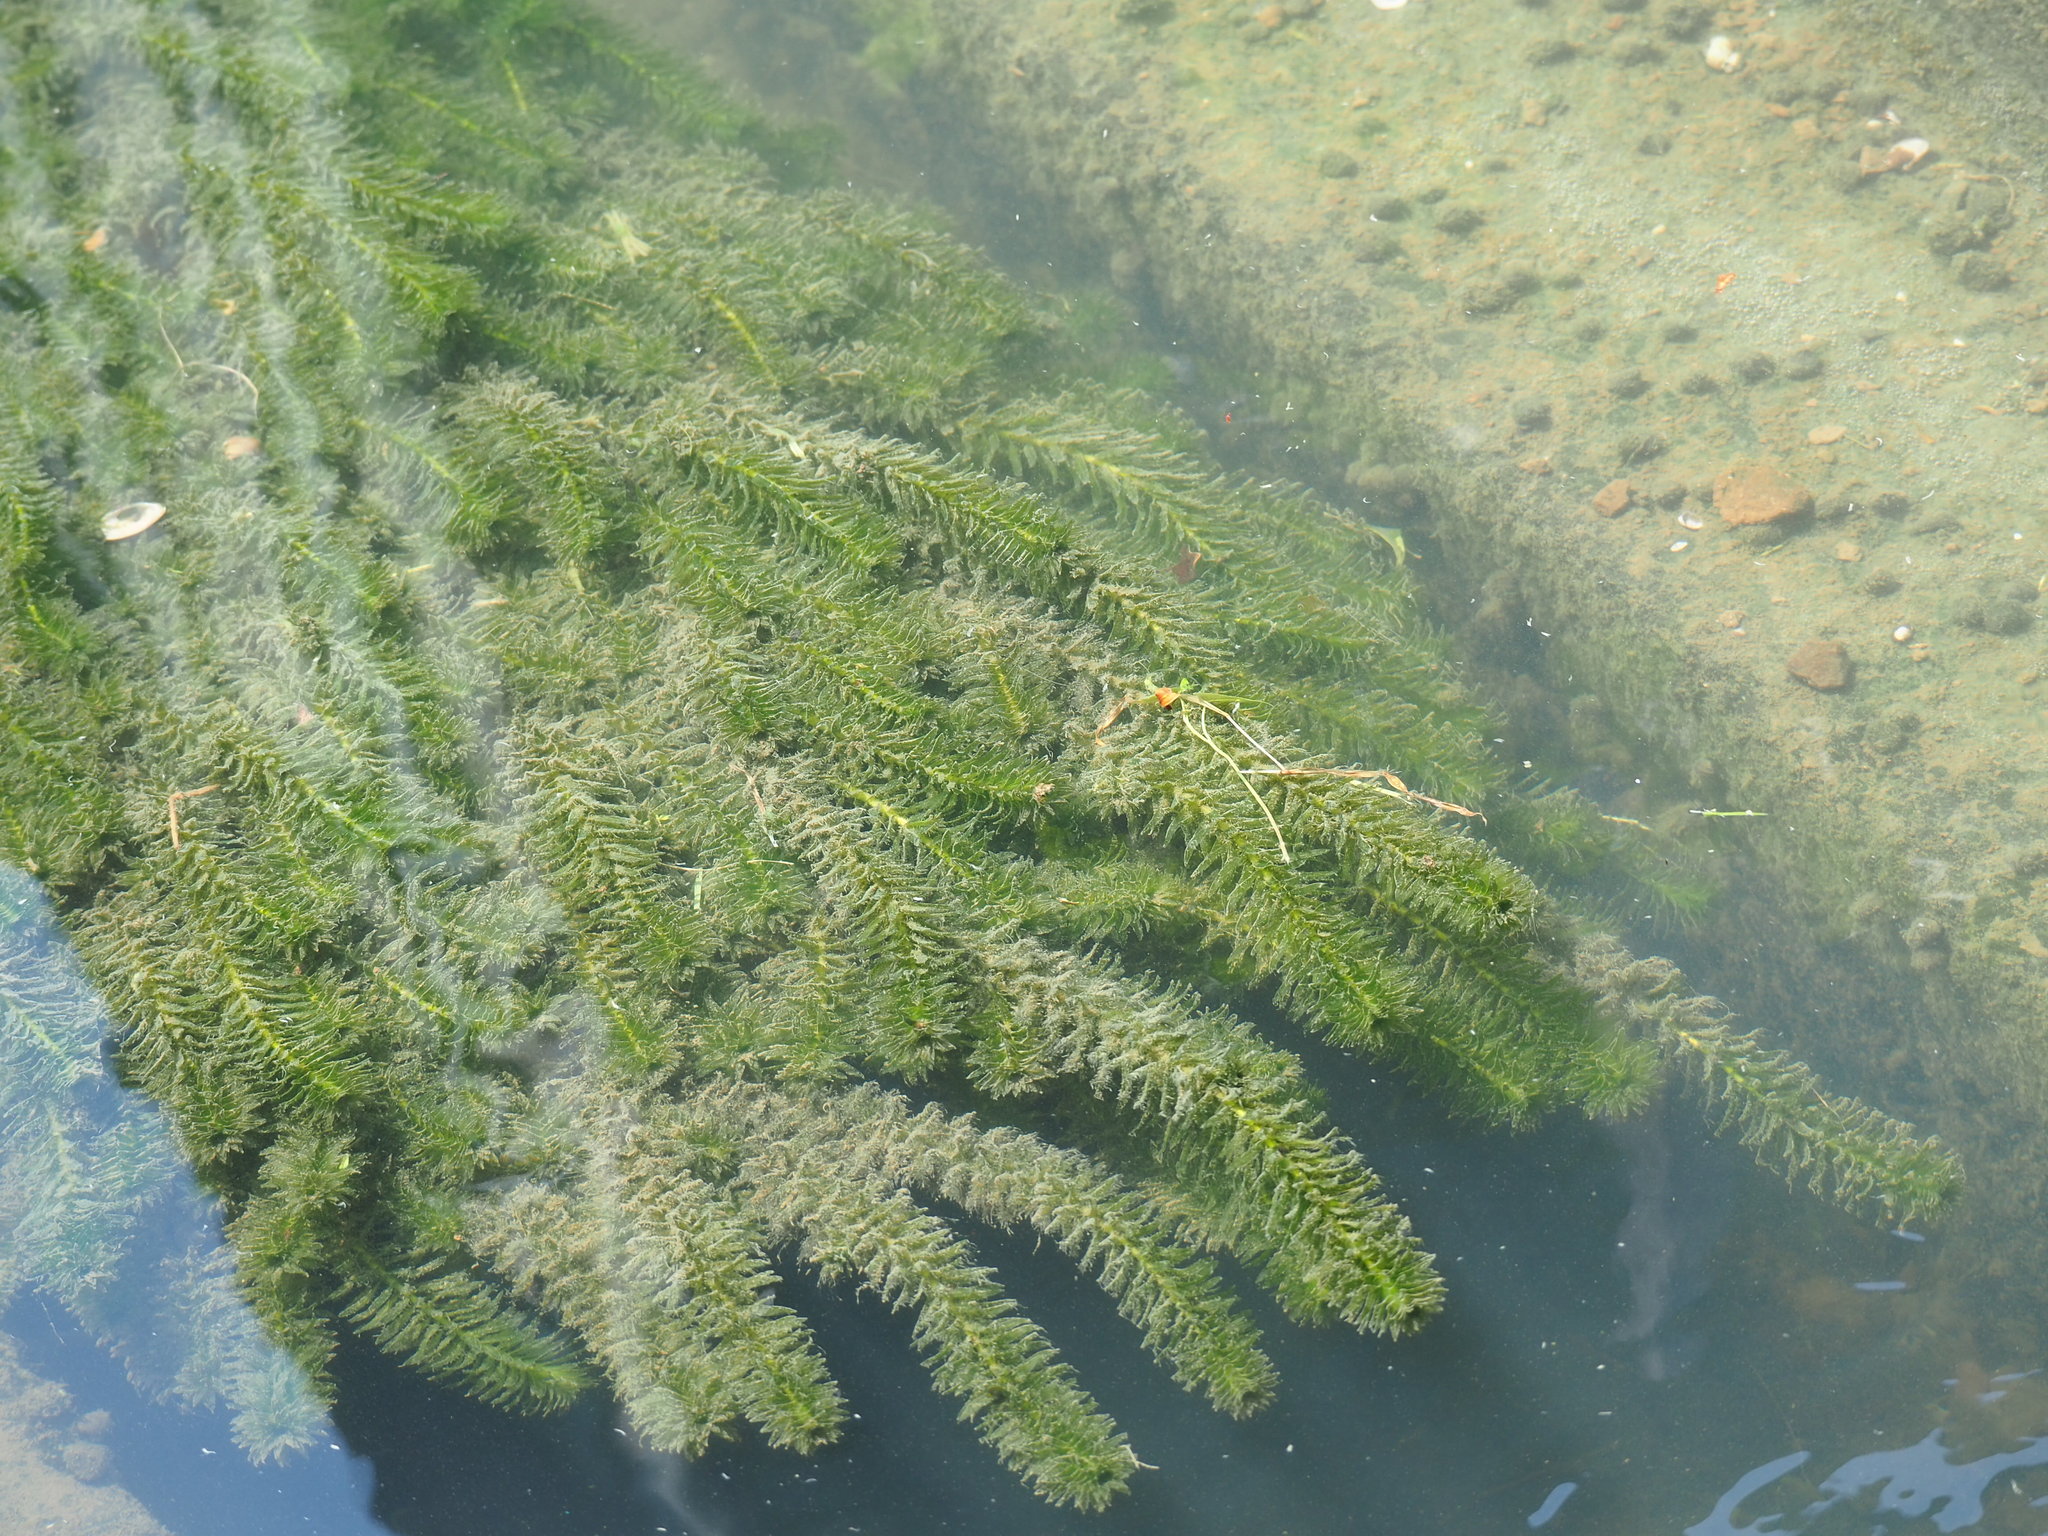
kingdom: Plantae
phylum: Tracheophyta
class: Liliopsida
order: Alismatales
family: Hydrocharitaceae
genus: Elodea
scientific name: Elodea densa
